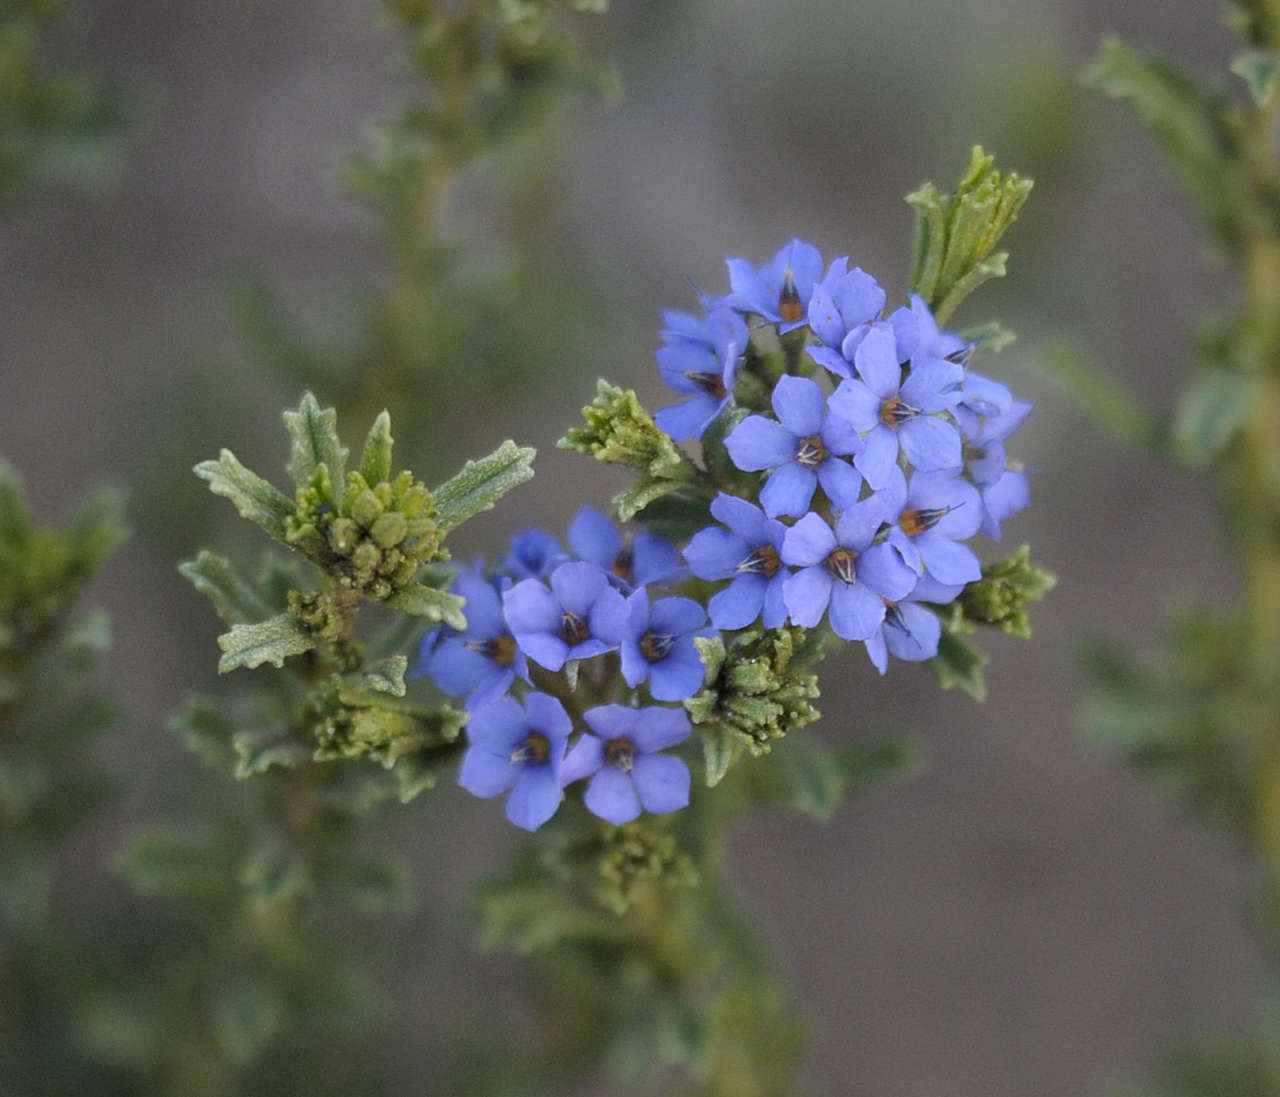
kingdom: Plantae
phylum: Tracheophyta
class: Magnoliopsida
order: Boraginales
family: Ehretiaceae
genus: Halgania
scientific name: Halgania cyanea
